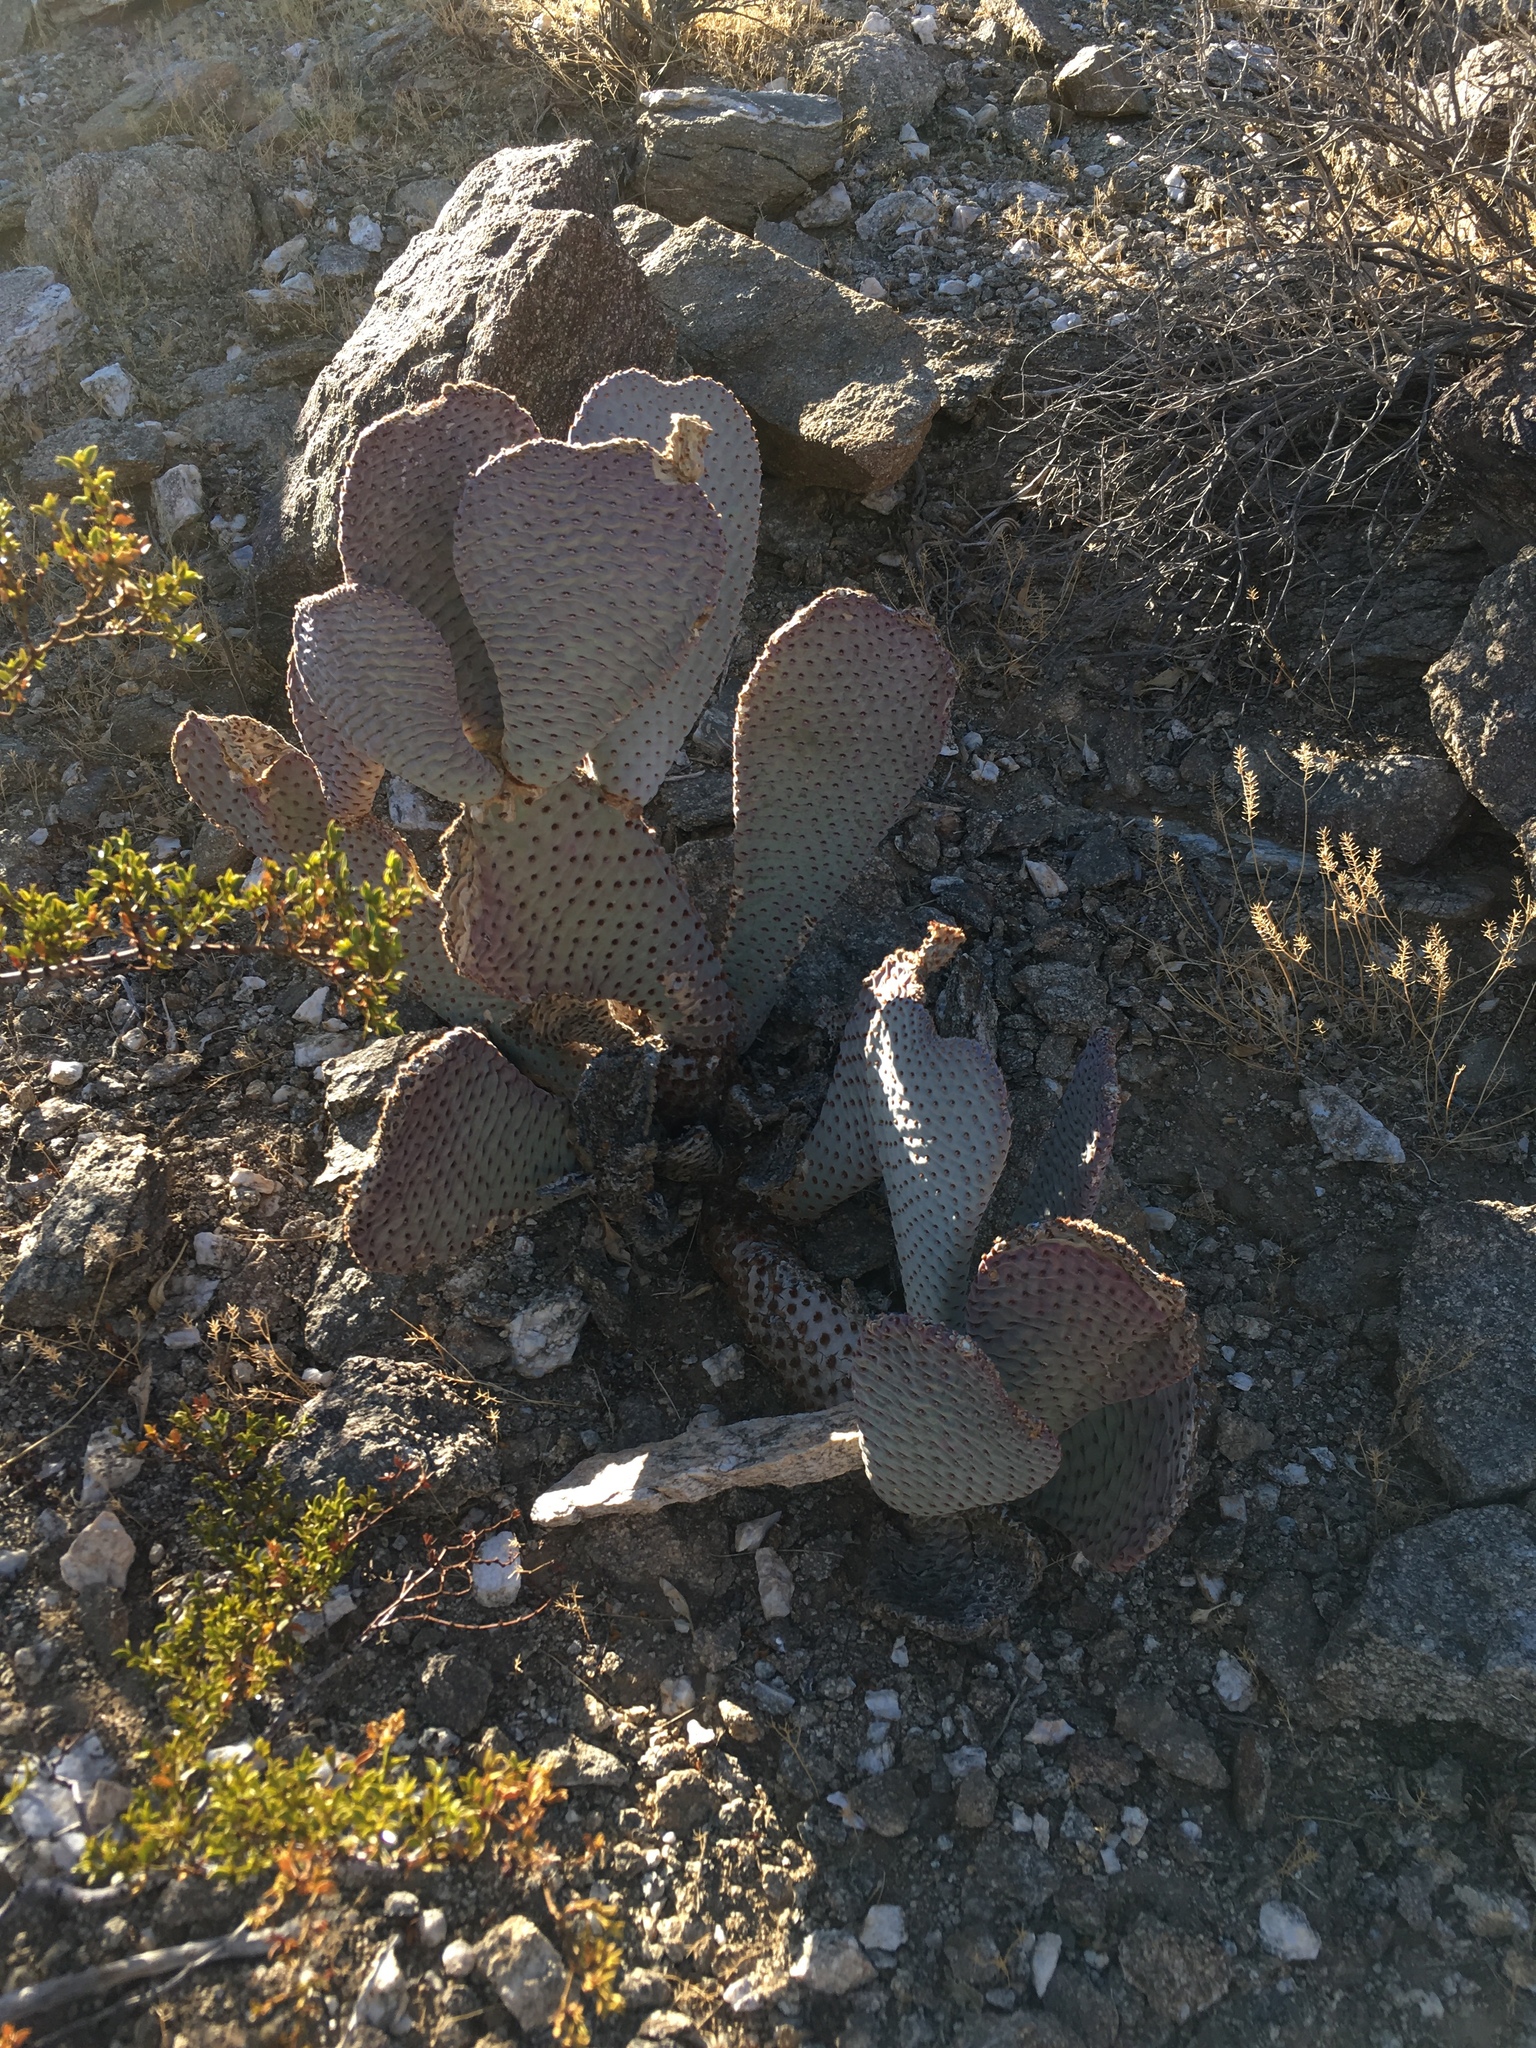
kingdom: Plantae
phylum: Tracheophyta
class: Magnoliopsida
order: Caryophyllales
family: Cactaceae
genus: Opuntia
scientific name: Opuntia basilaris
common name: Beavertail prickly-pear
